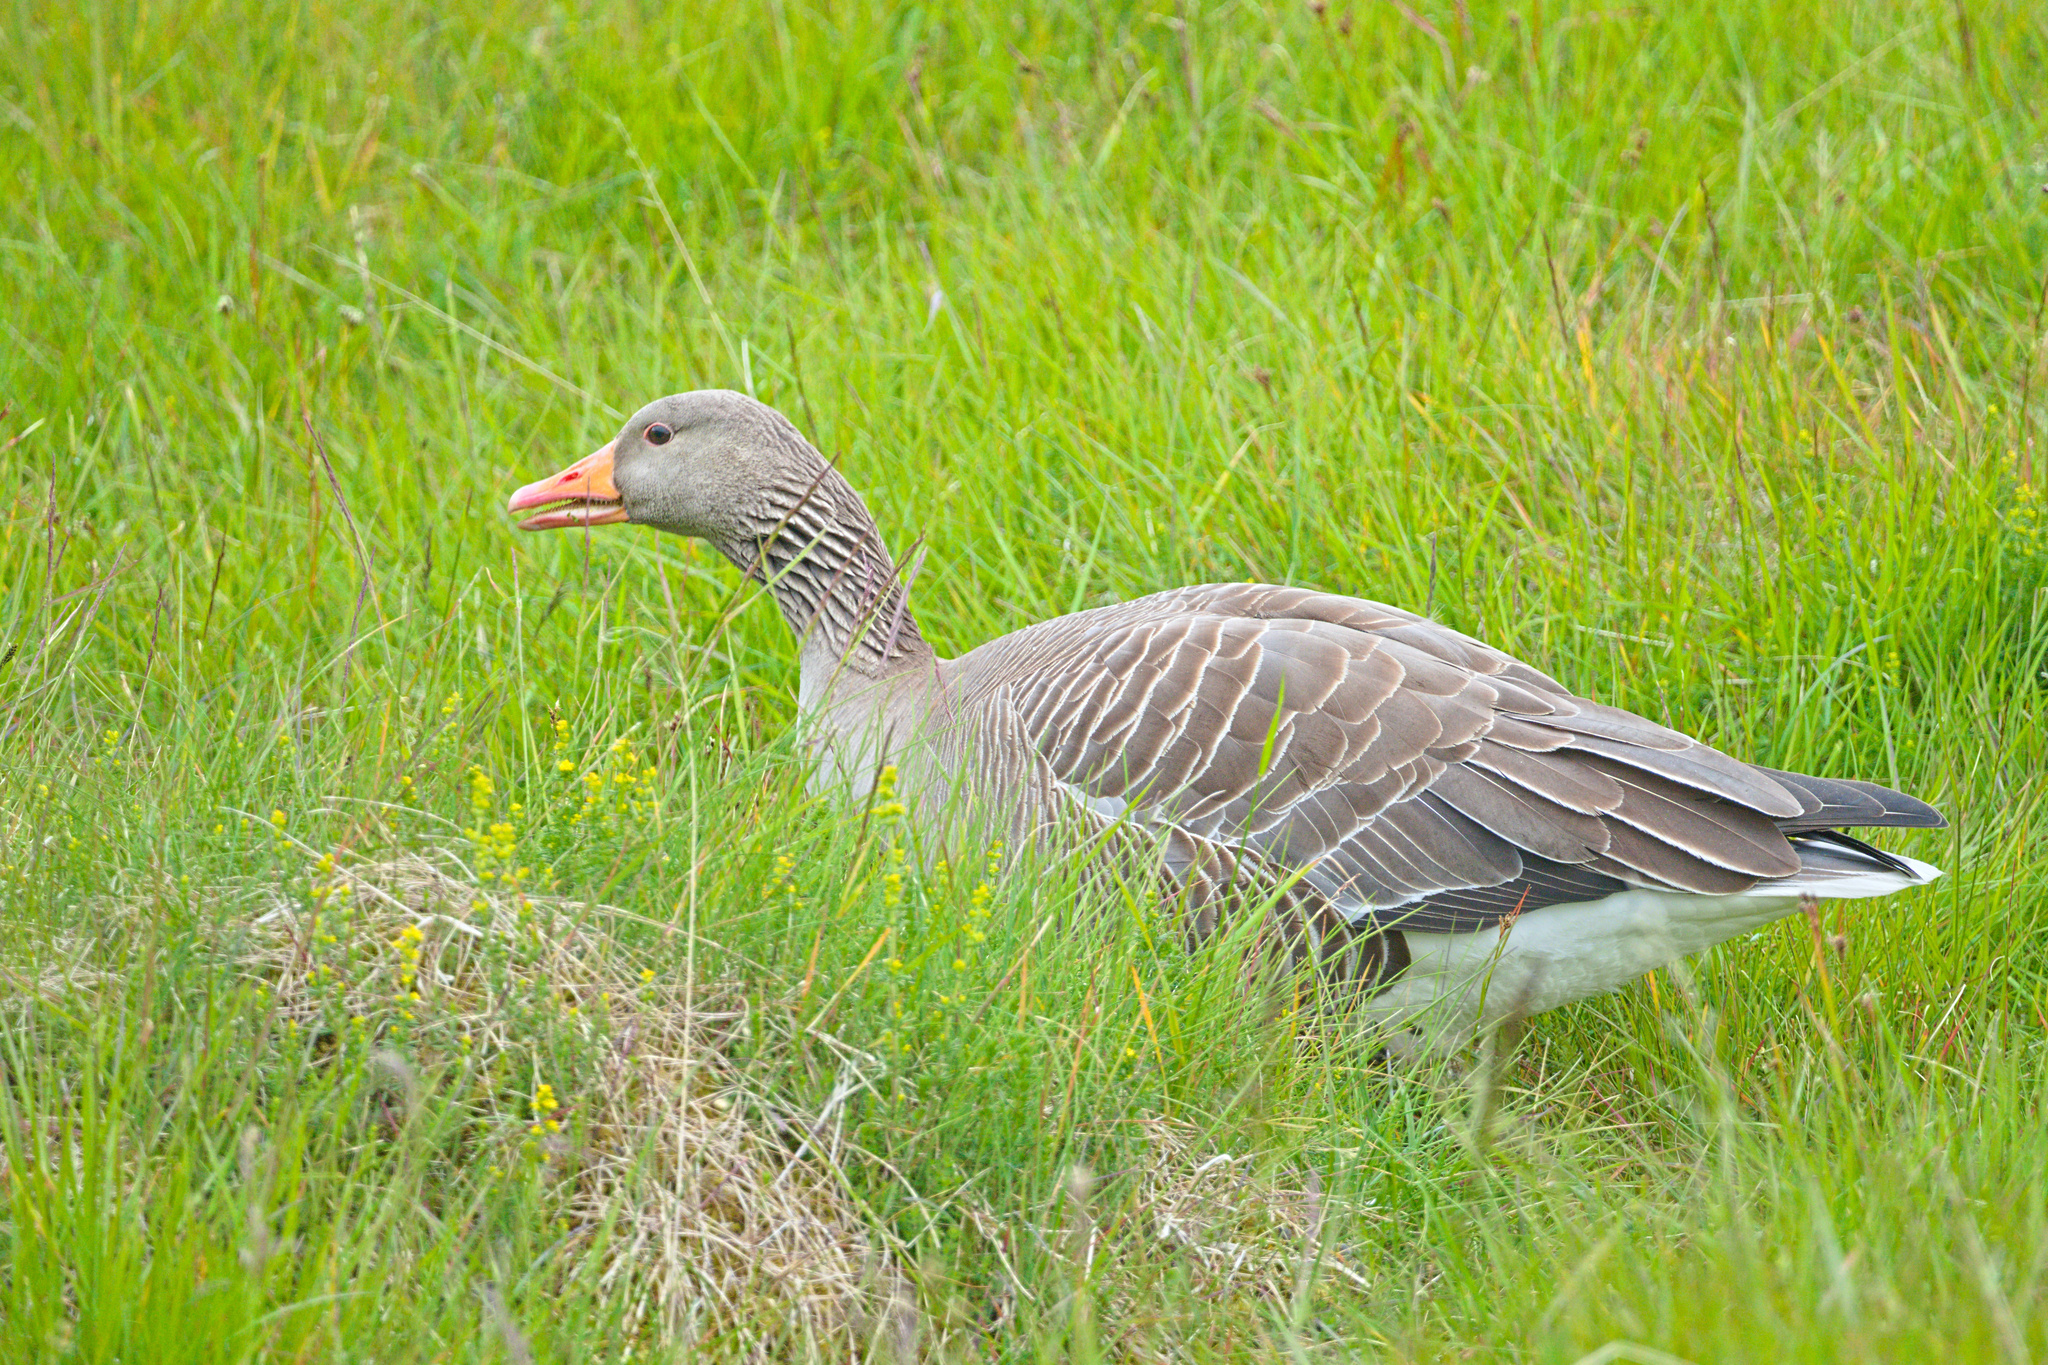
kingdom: Animalia
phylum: Chordata
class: Aves
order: Anseriformes
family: Anatidae
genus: Anser
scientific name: Anser anser
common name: Greylag goose
